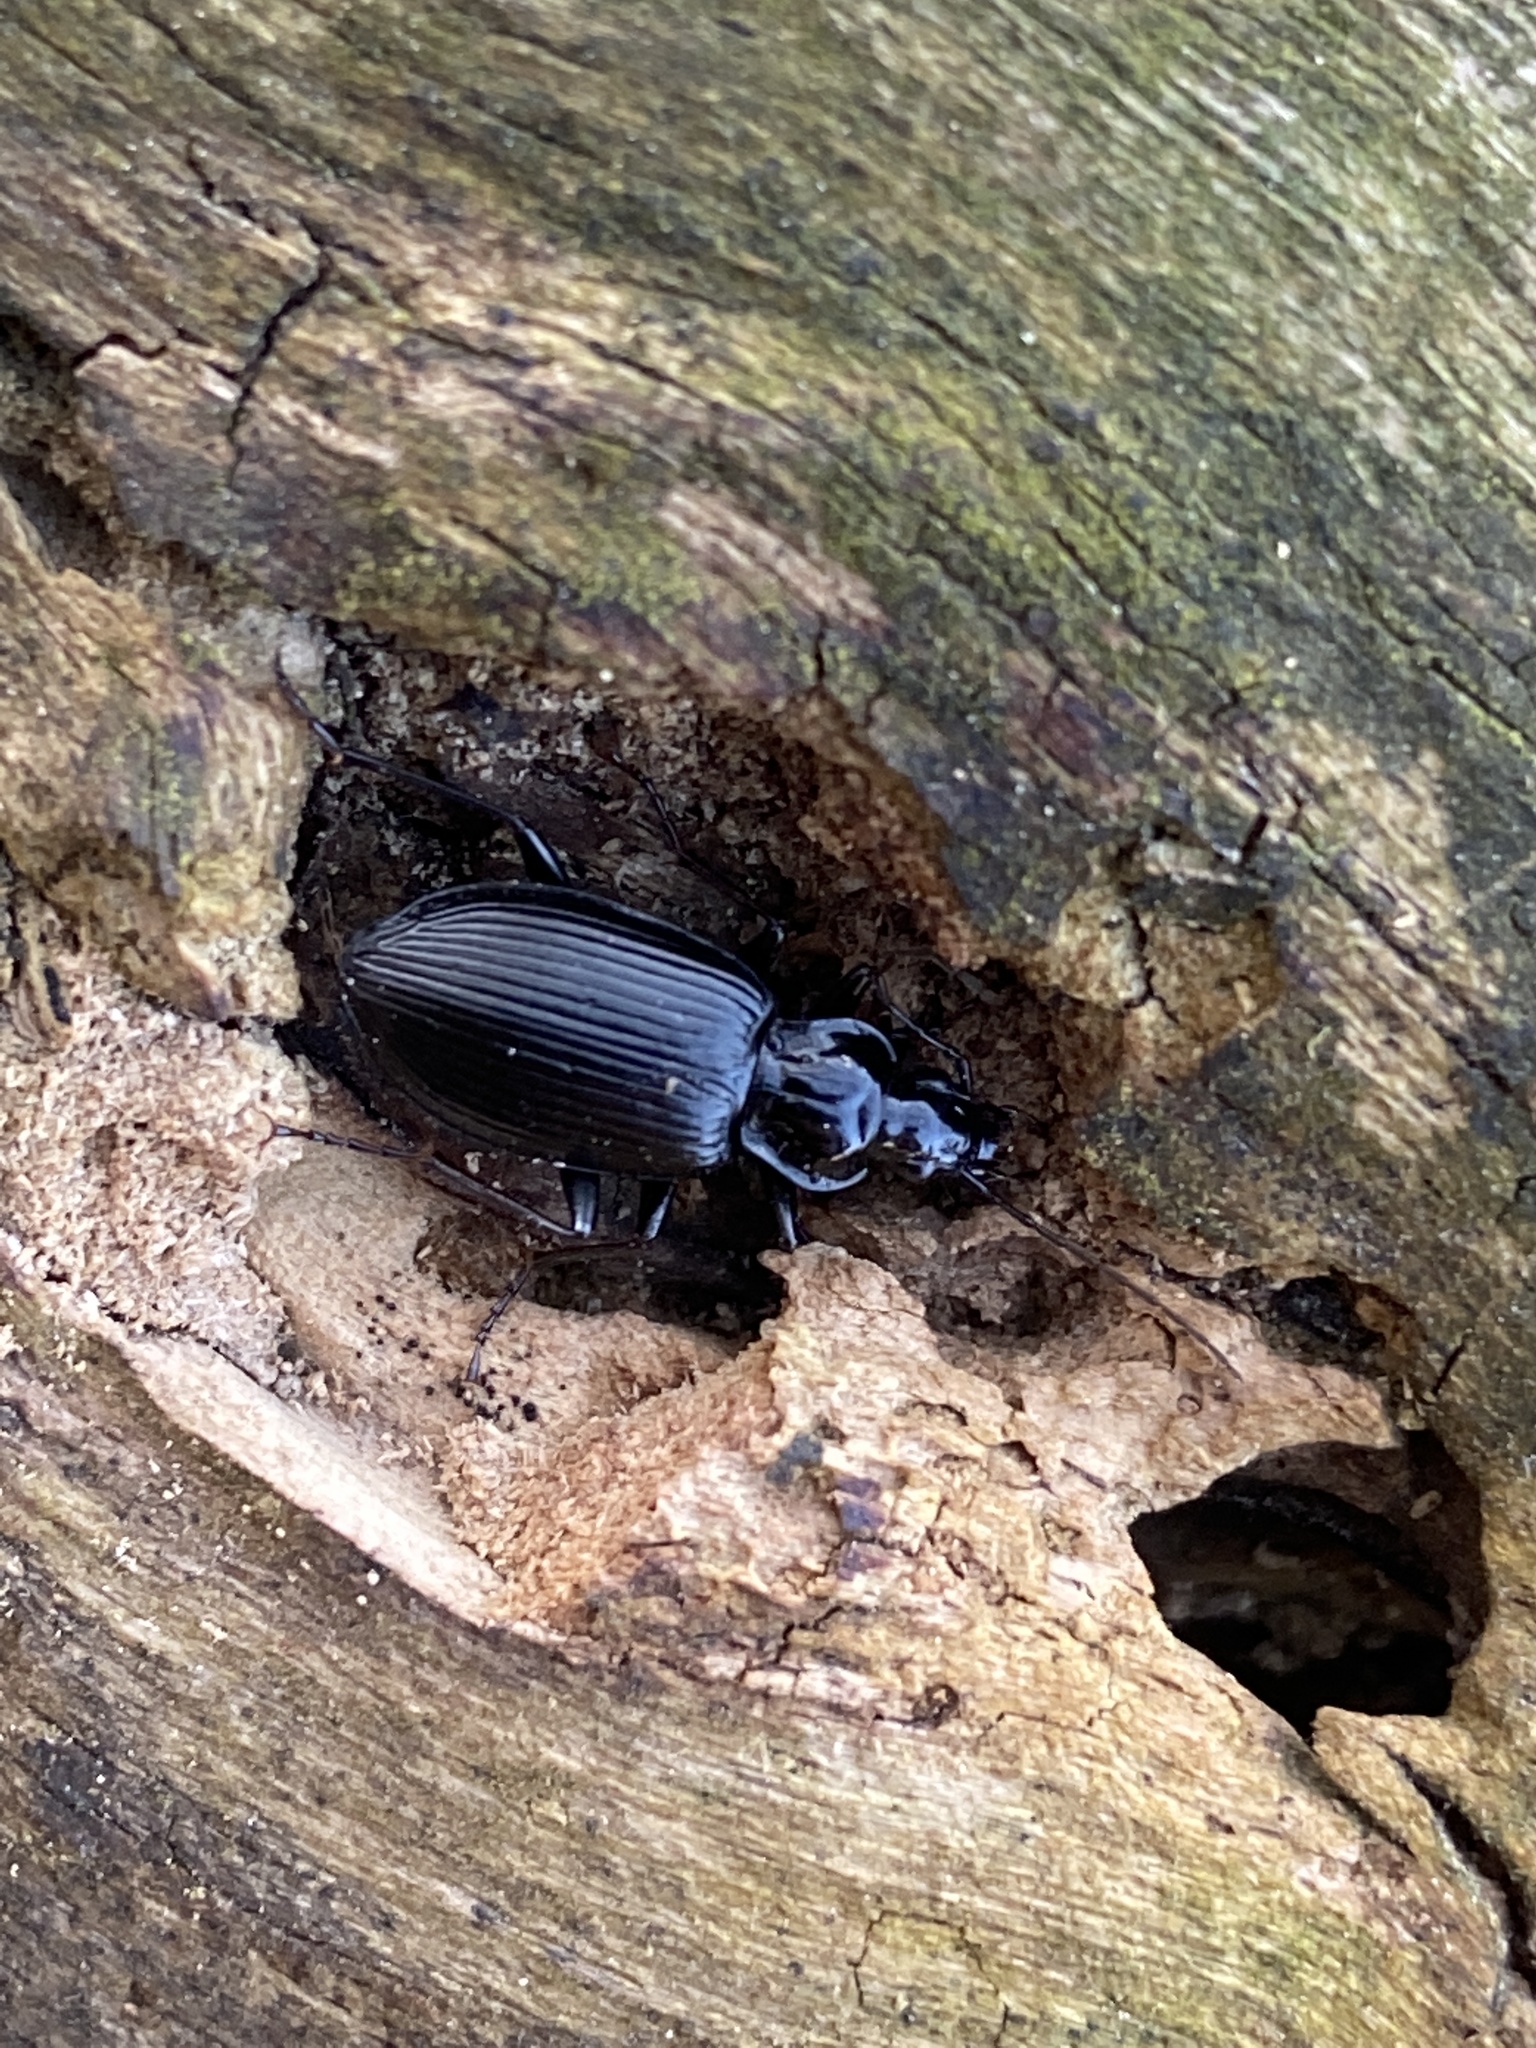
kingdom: Animalia
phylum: Arthropoda
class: Insecta
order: Coleoptera
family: Carabidae
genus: Platynus
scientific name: Platynus assimilis
